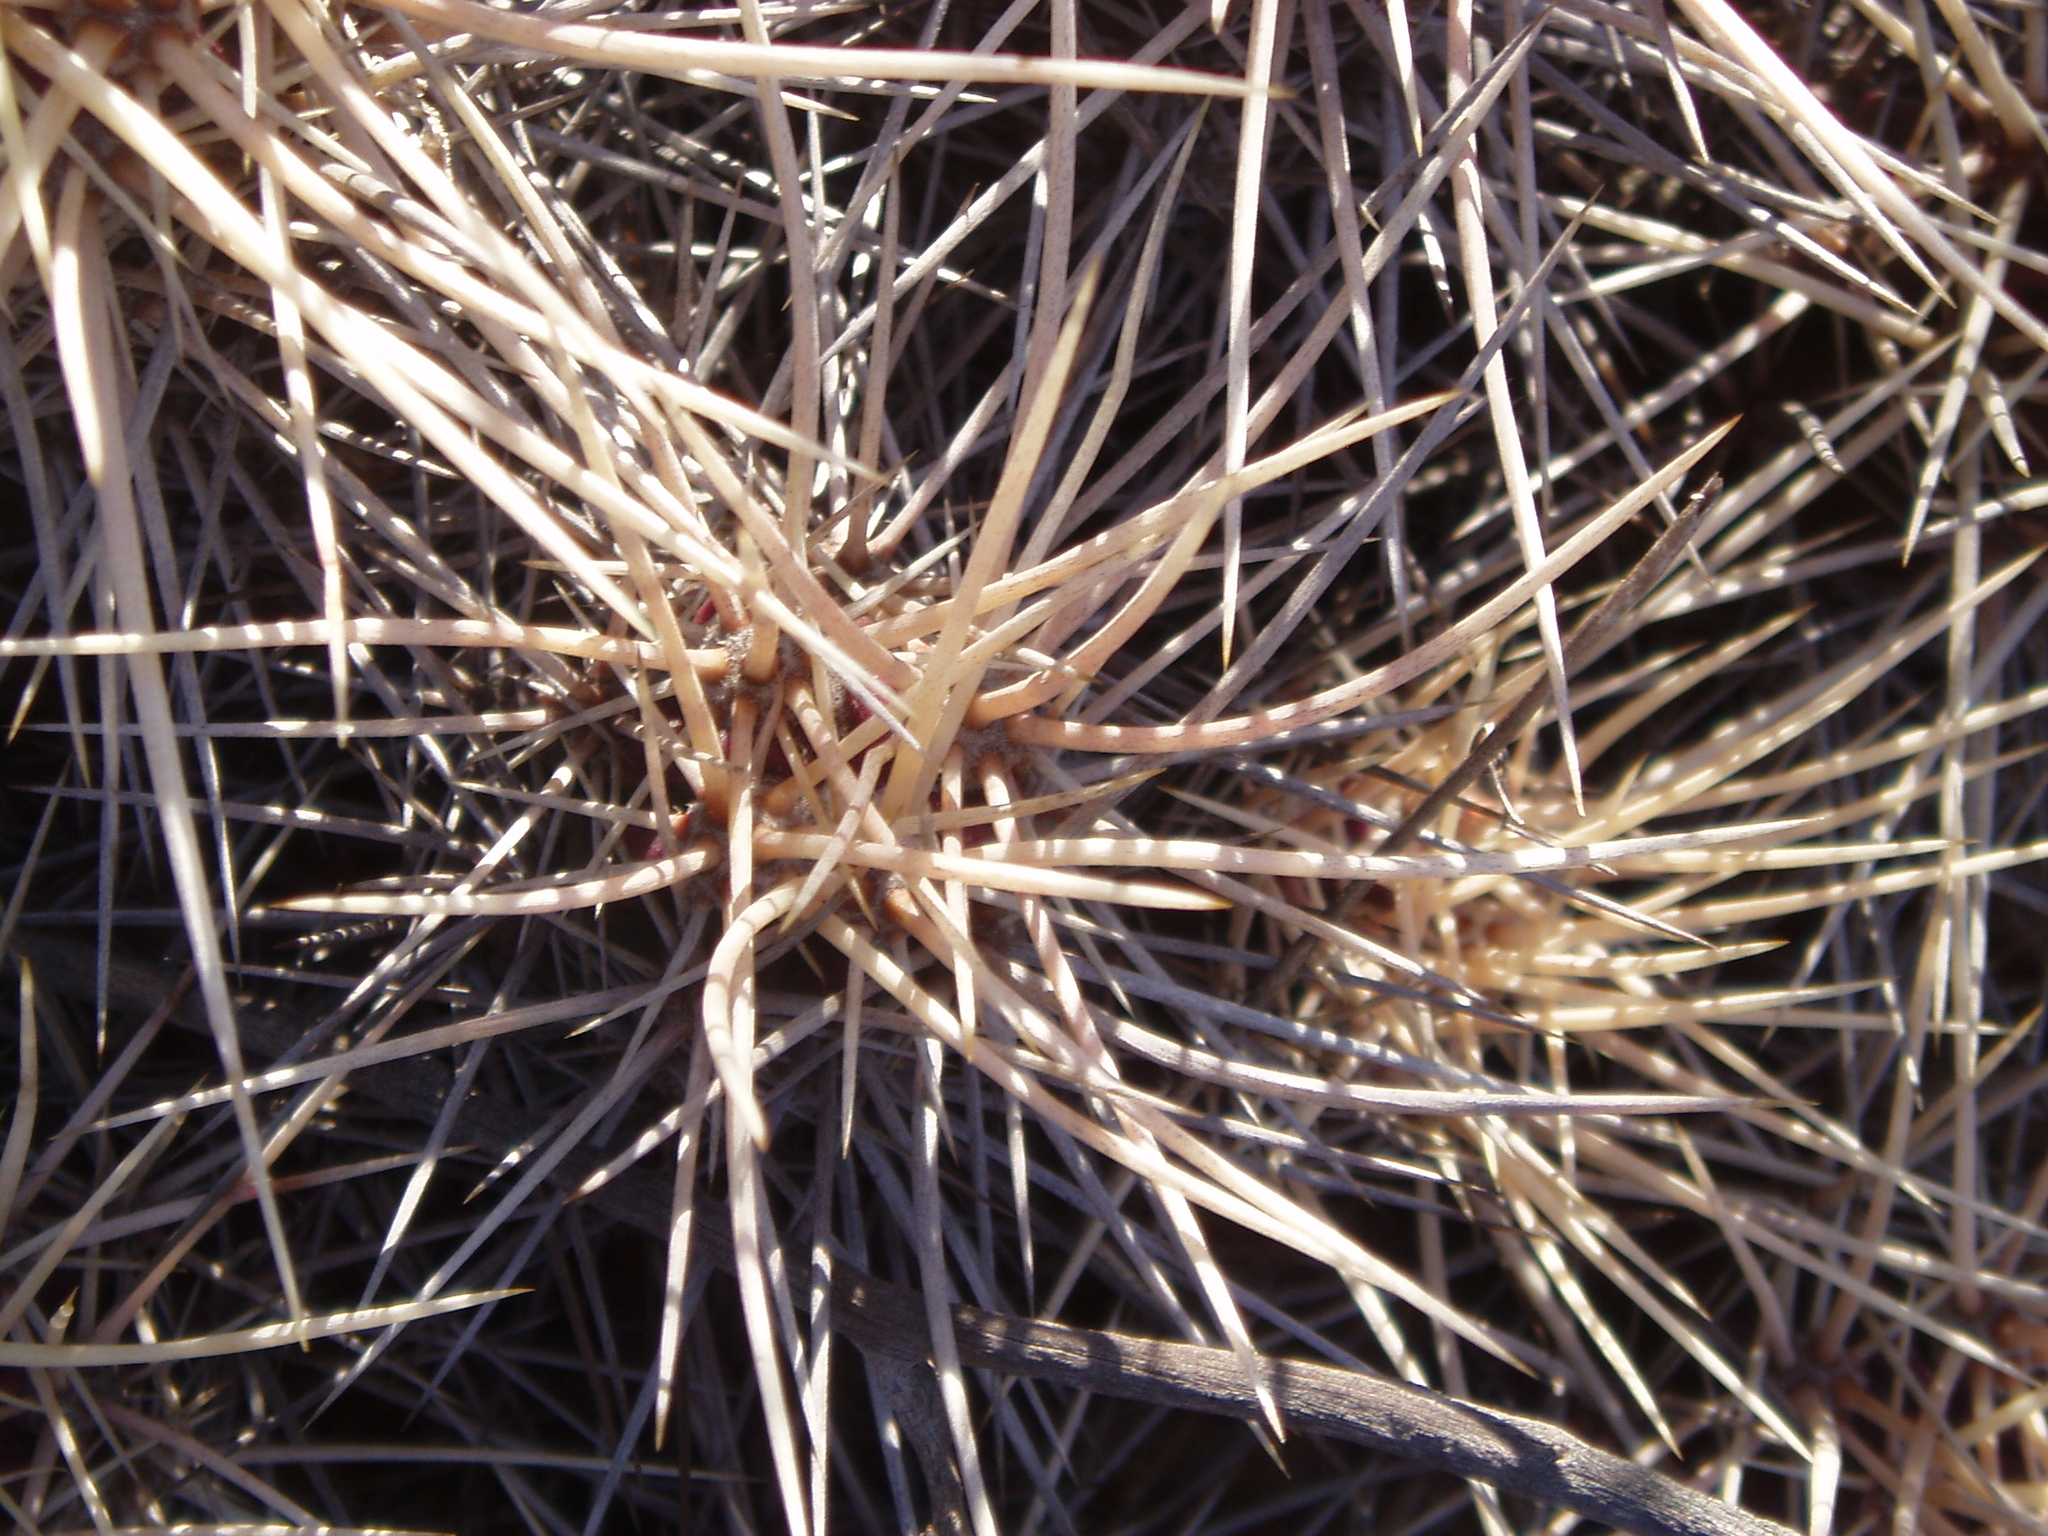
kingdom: Plantae
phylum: Tracheophyta
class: Magnoliopsida
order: Caryophyllales
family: Cactaceae
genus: Echinocereus
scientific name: Echinocereus maritimus
